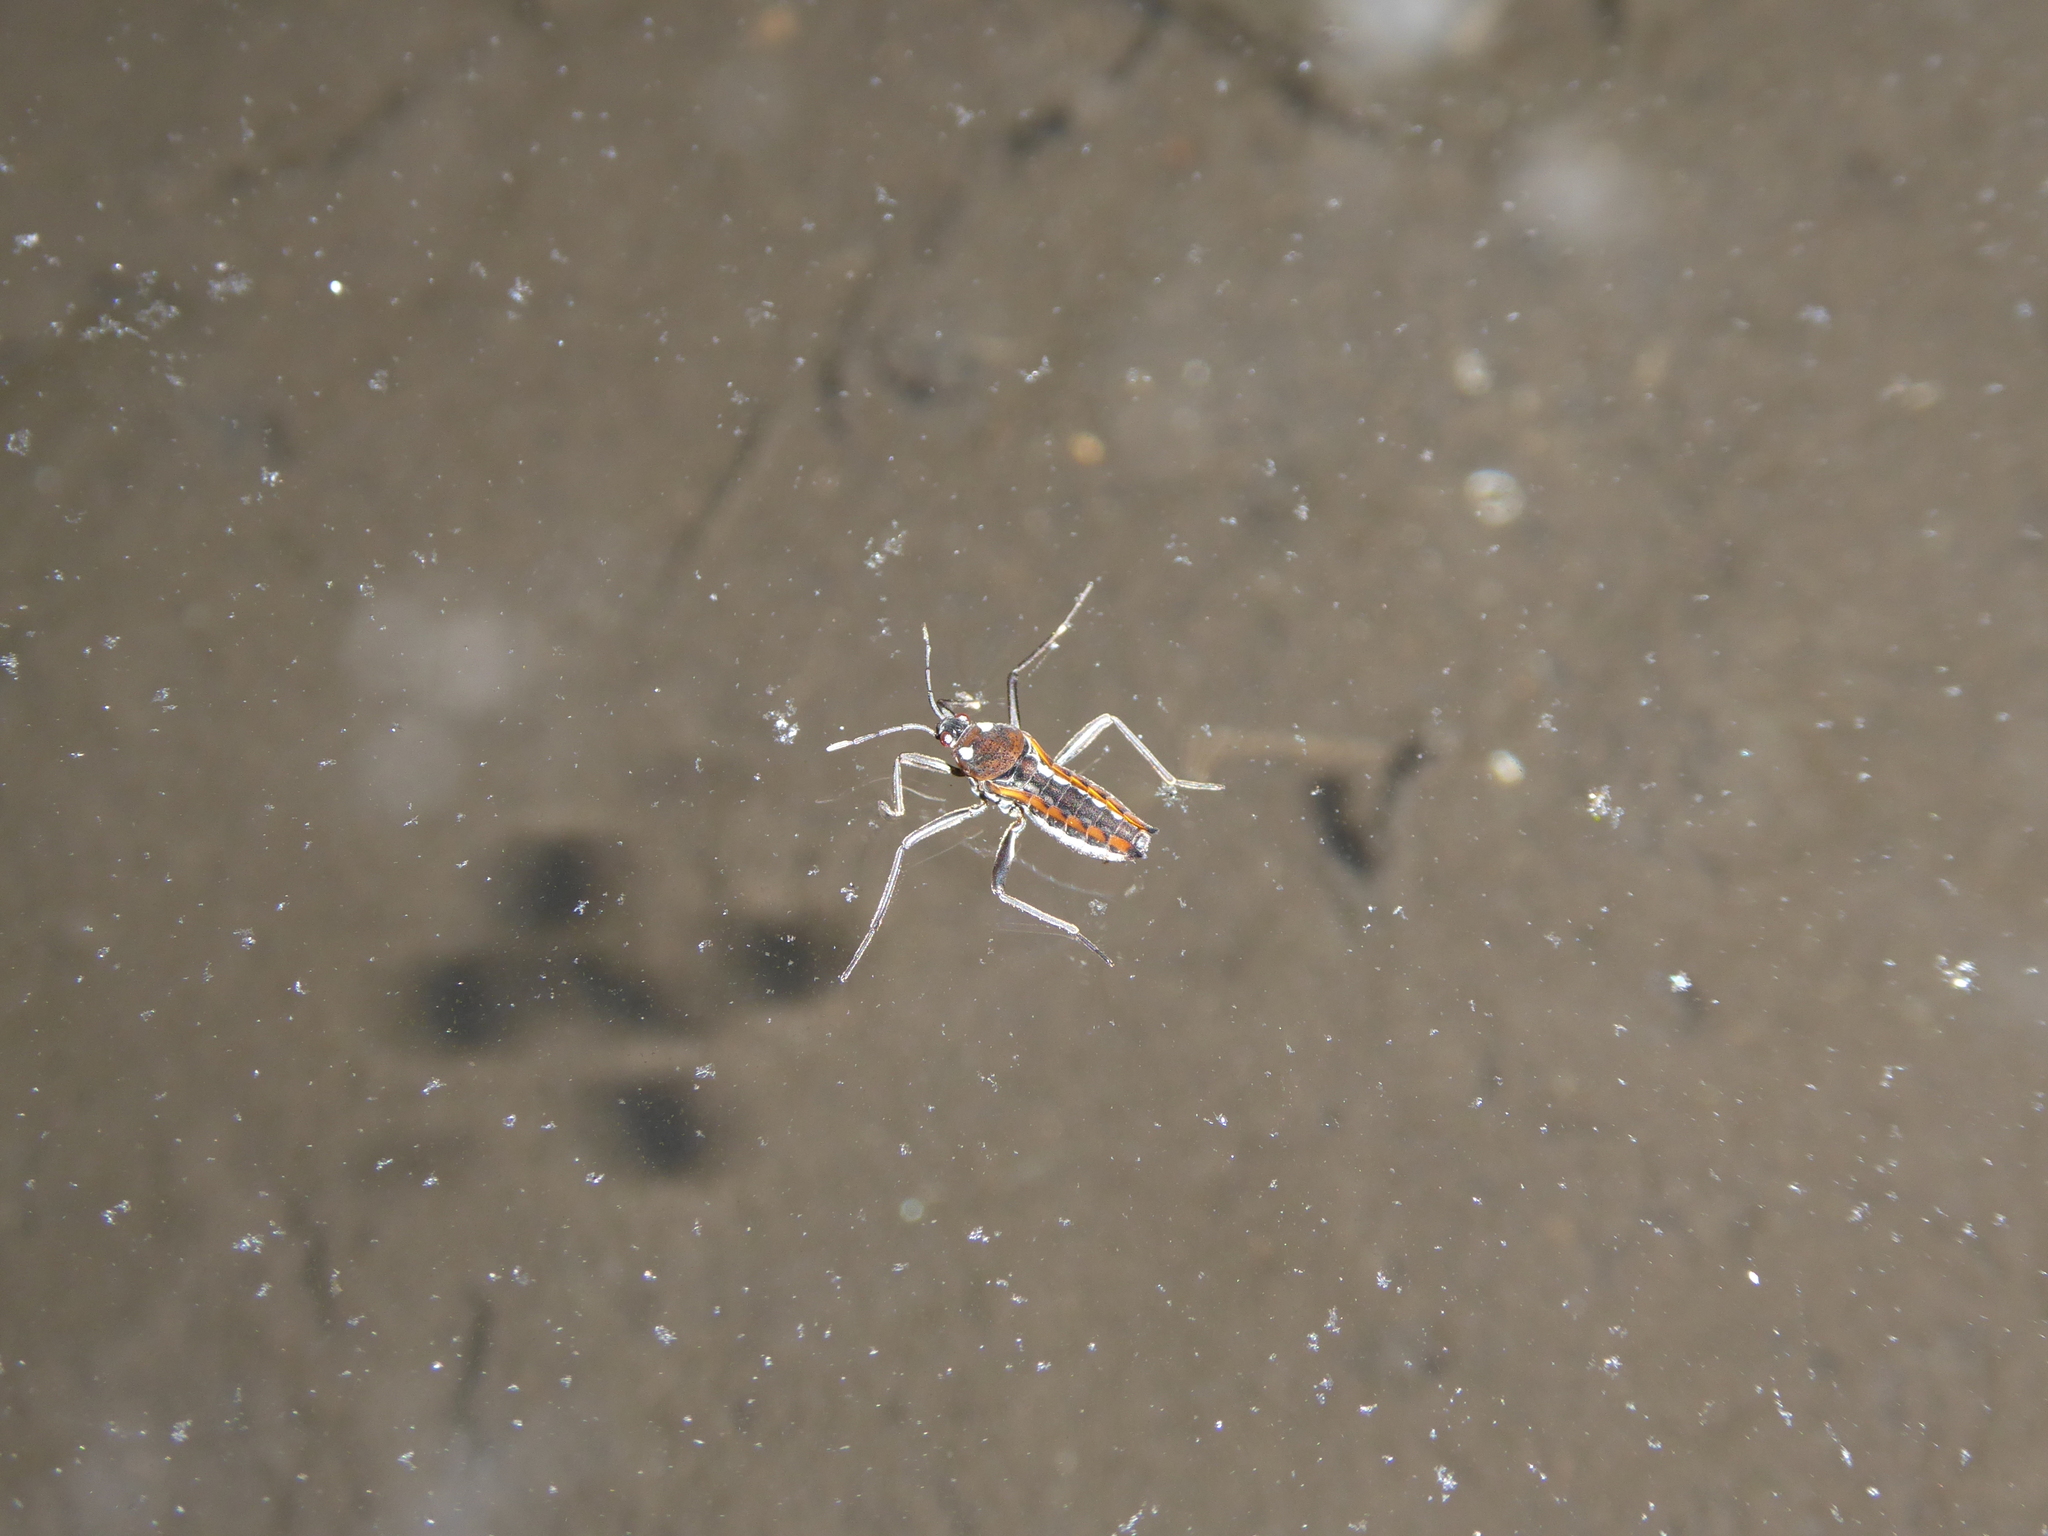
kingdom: Animalia
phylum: Arthropoda
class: Insecta
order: Hemiptera
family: Veliidae
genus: Plesiovelia
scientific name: Plesiovelia
